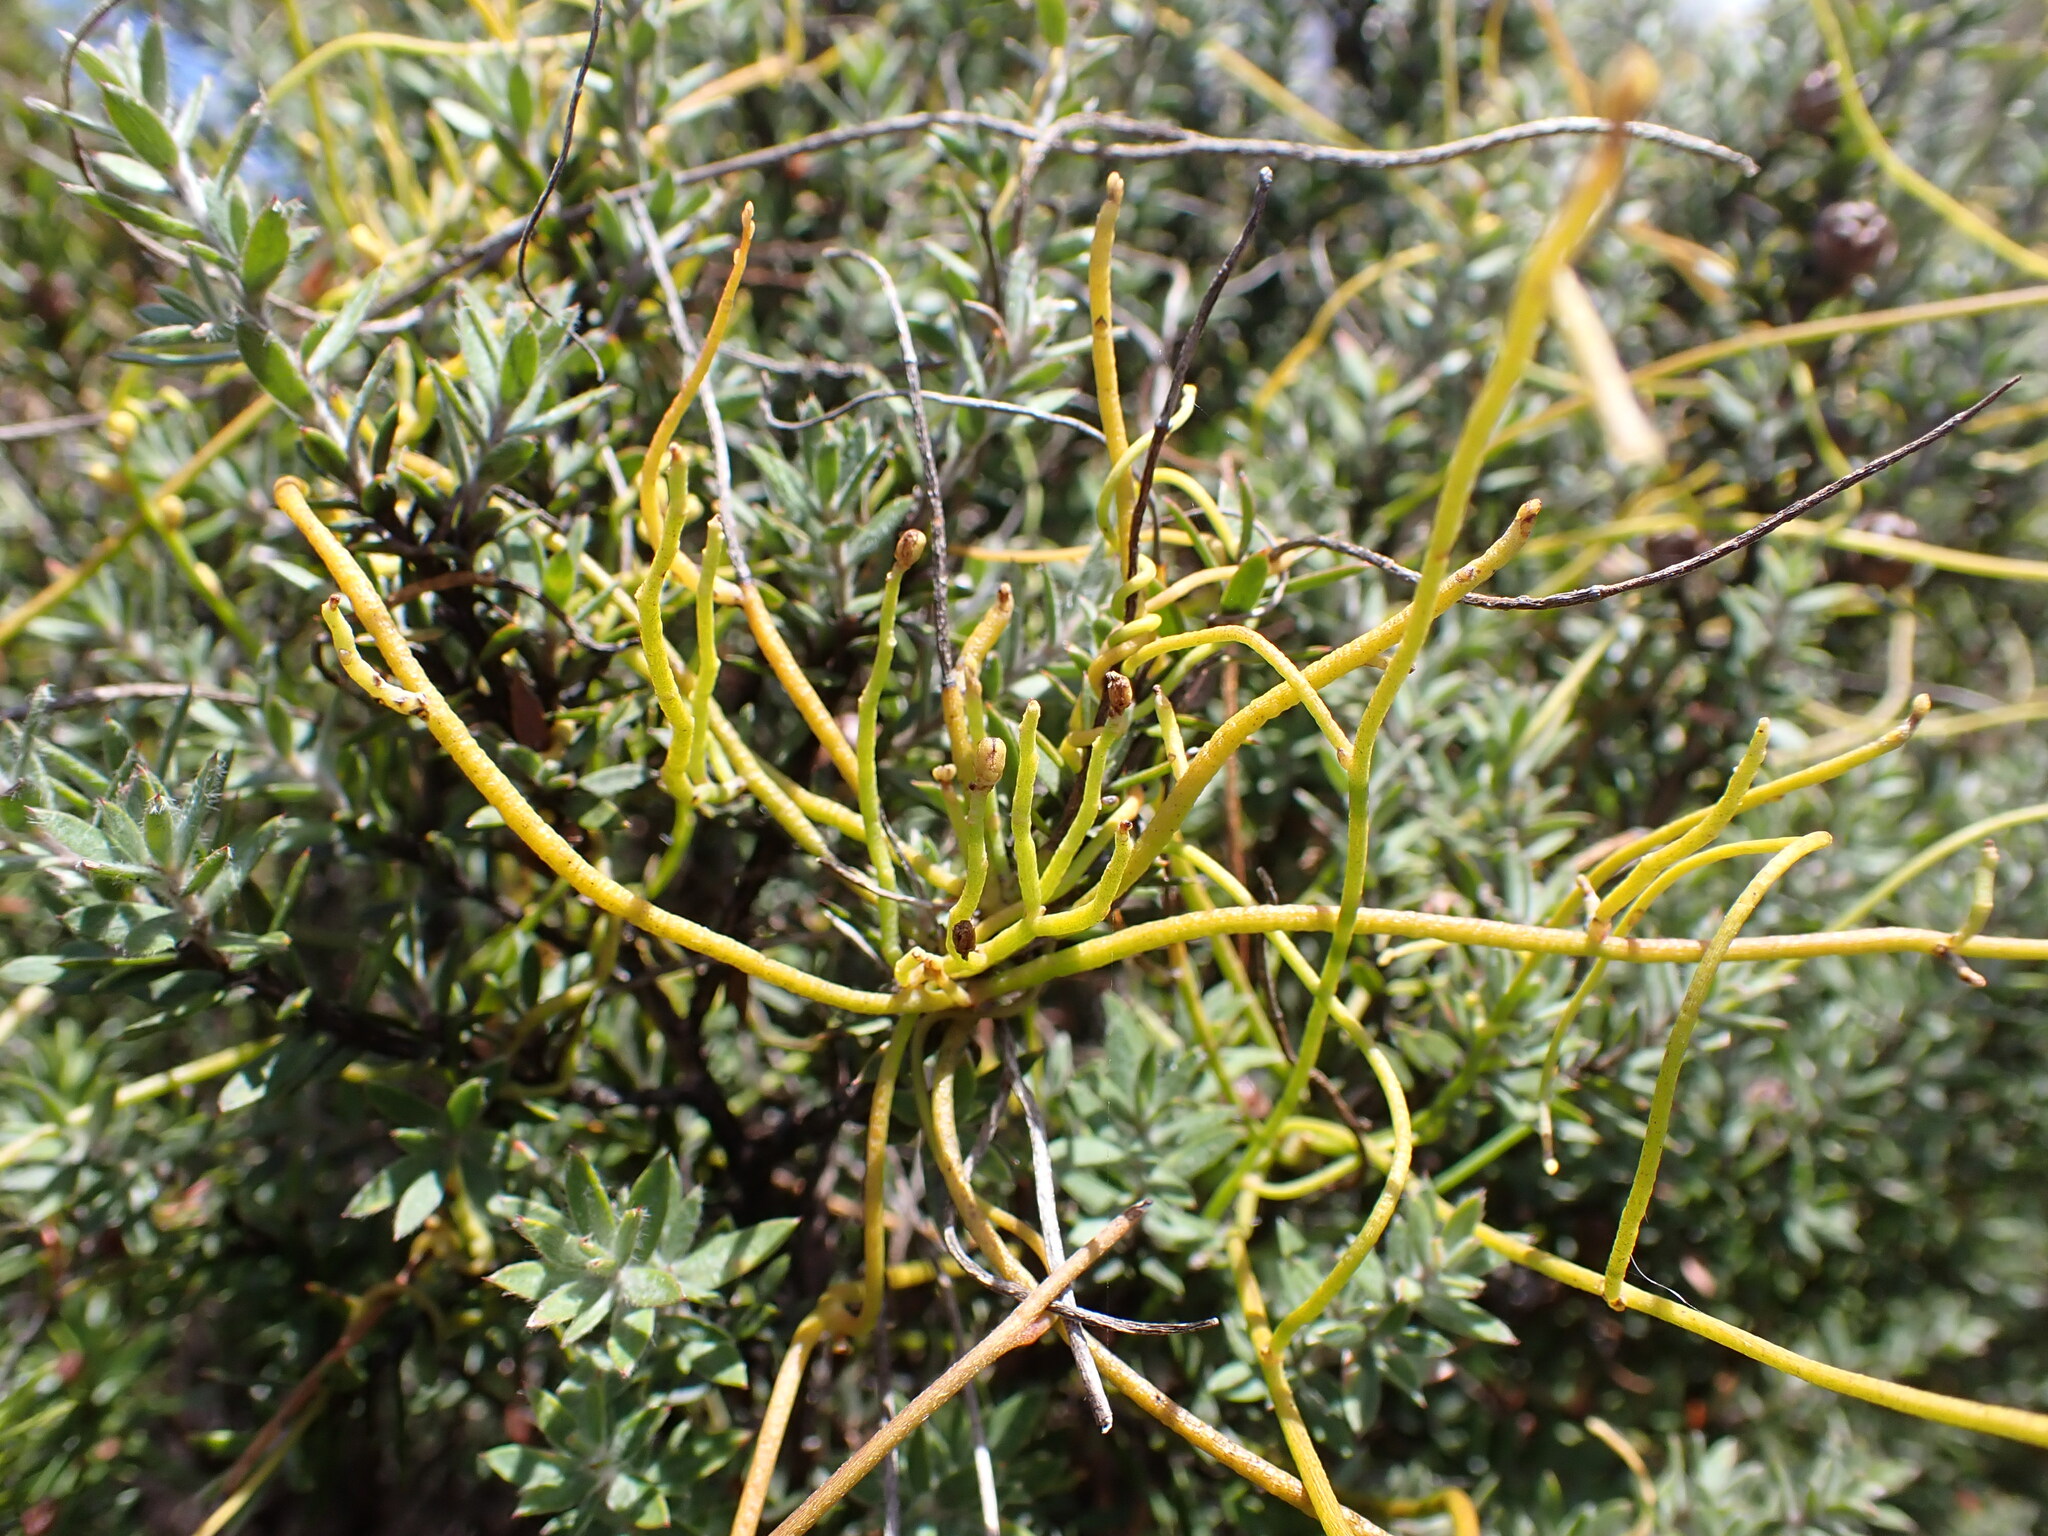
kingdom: Plantae
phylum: Tracheophyta
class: Magnoliopsida
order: Laurales
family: Lauraceae
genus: Cassytha
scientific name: Cassytha paniculata
